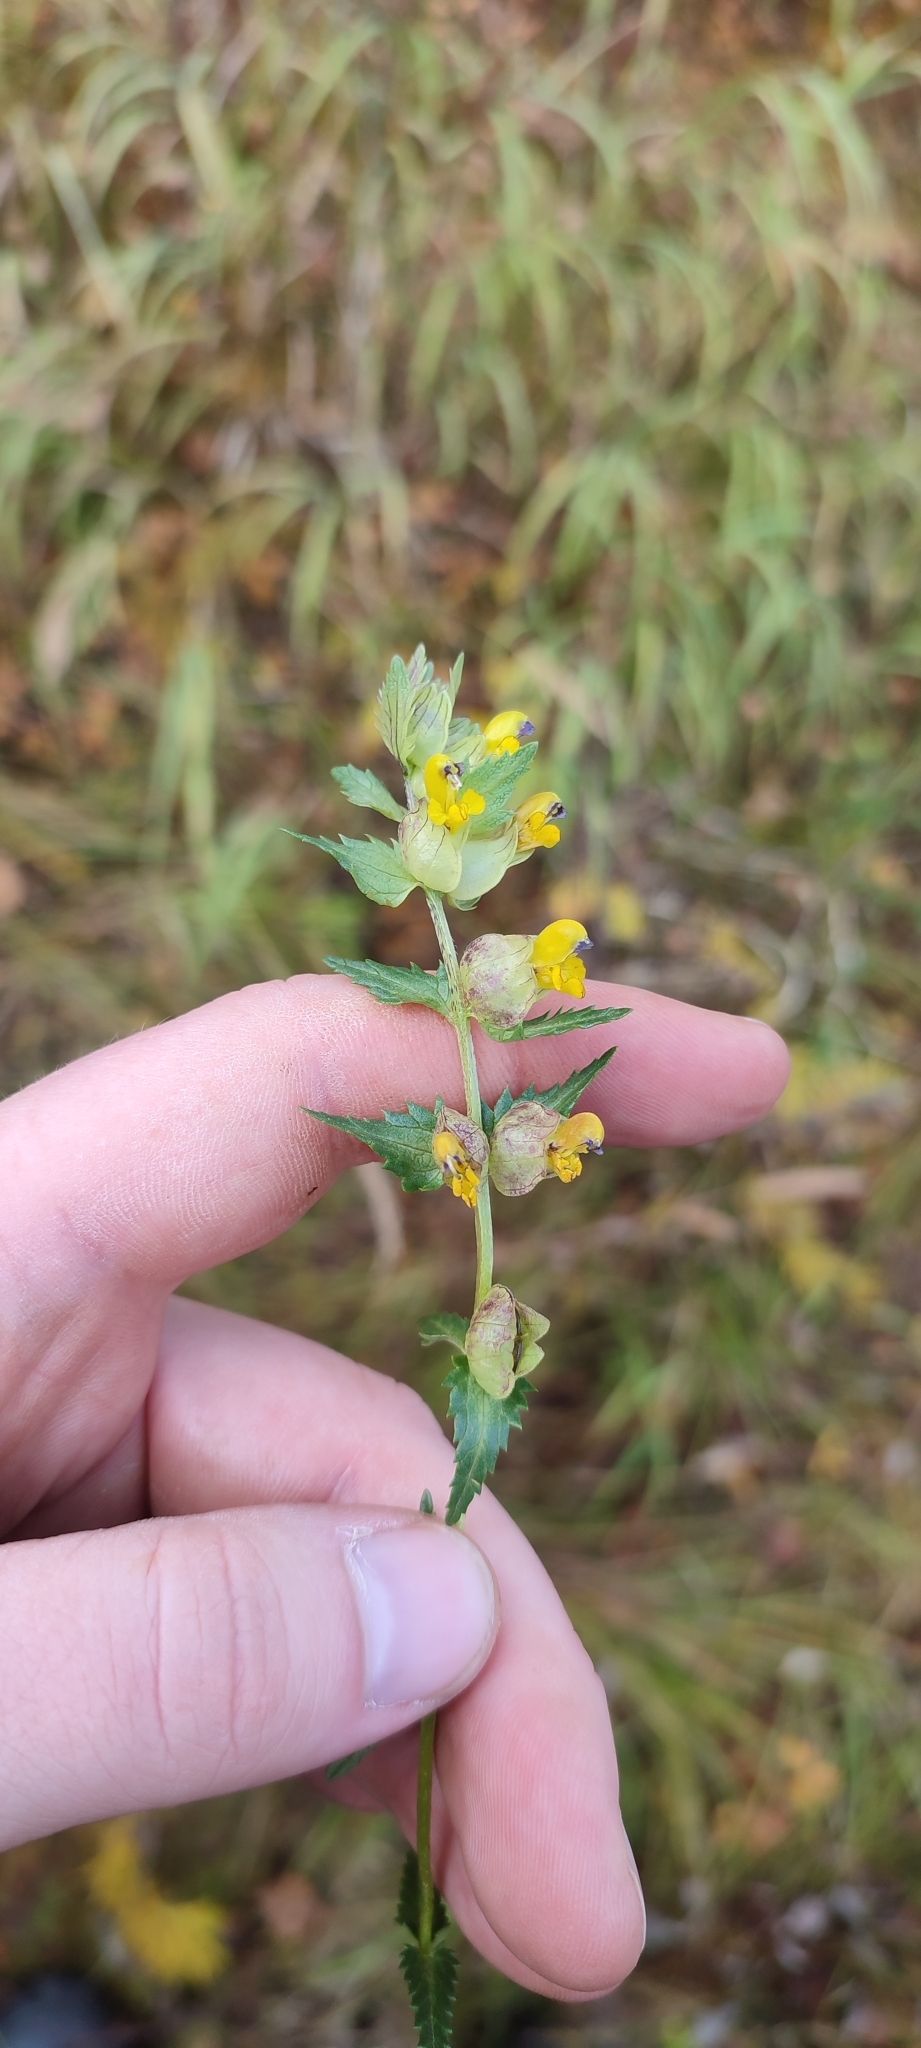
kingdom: Plantae
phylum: Tracheophyta
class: Magnoliopsida
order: Lamiales
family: Orobanchaceae
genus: Rhinanthus
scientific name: Rhinanthus minor
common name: Yellow-rattle
